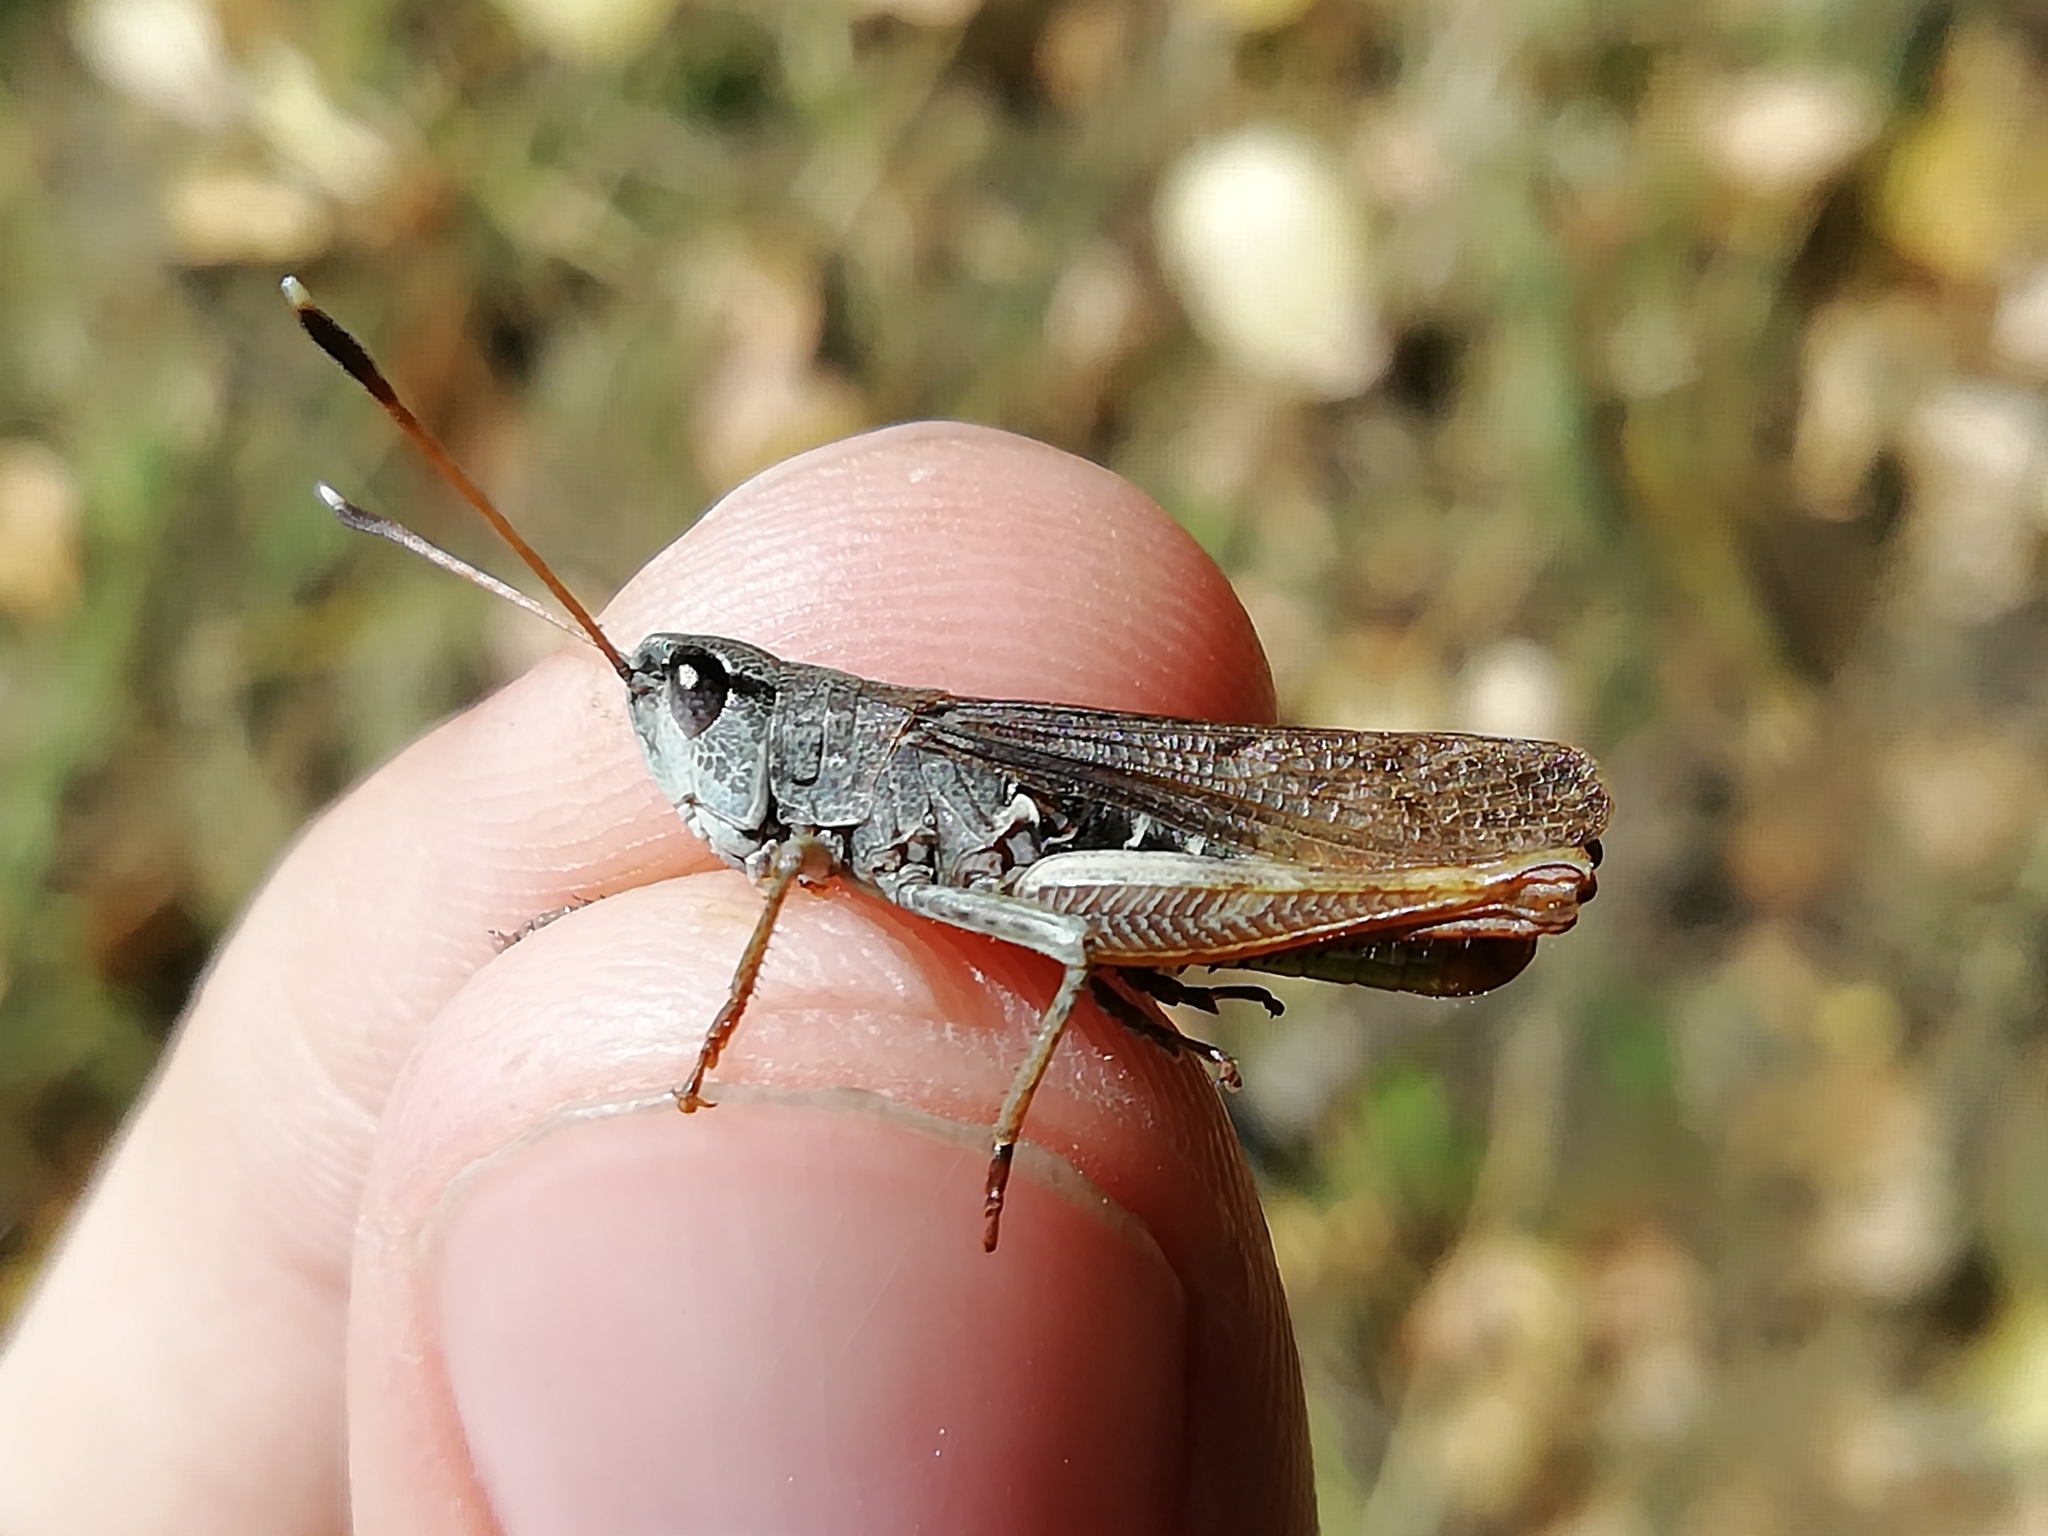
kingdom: Animalia
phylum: Arthropoda
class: Insecta
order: Orthoptera
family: Acrididae
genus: Gomphocerippus
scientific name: Gomphocerippus rufus
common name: Rufous grasshopper
